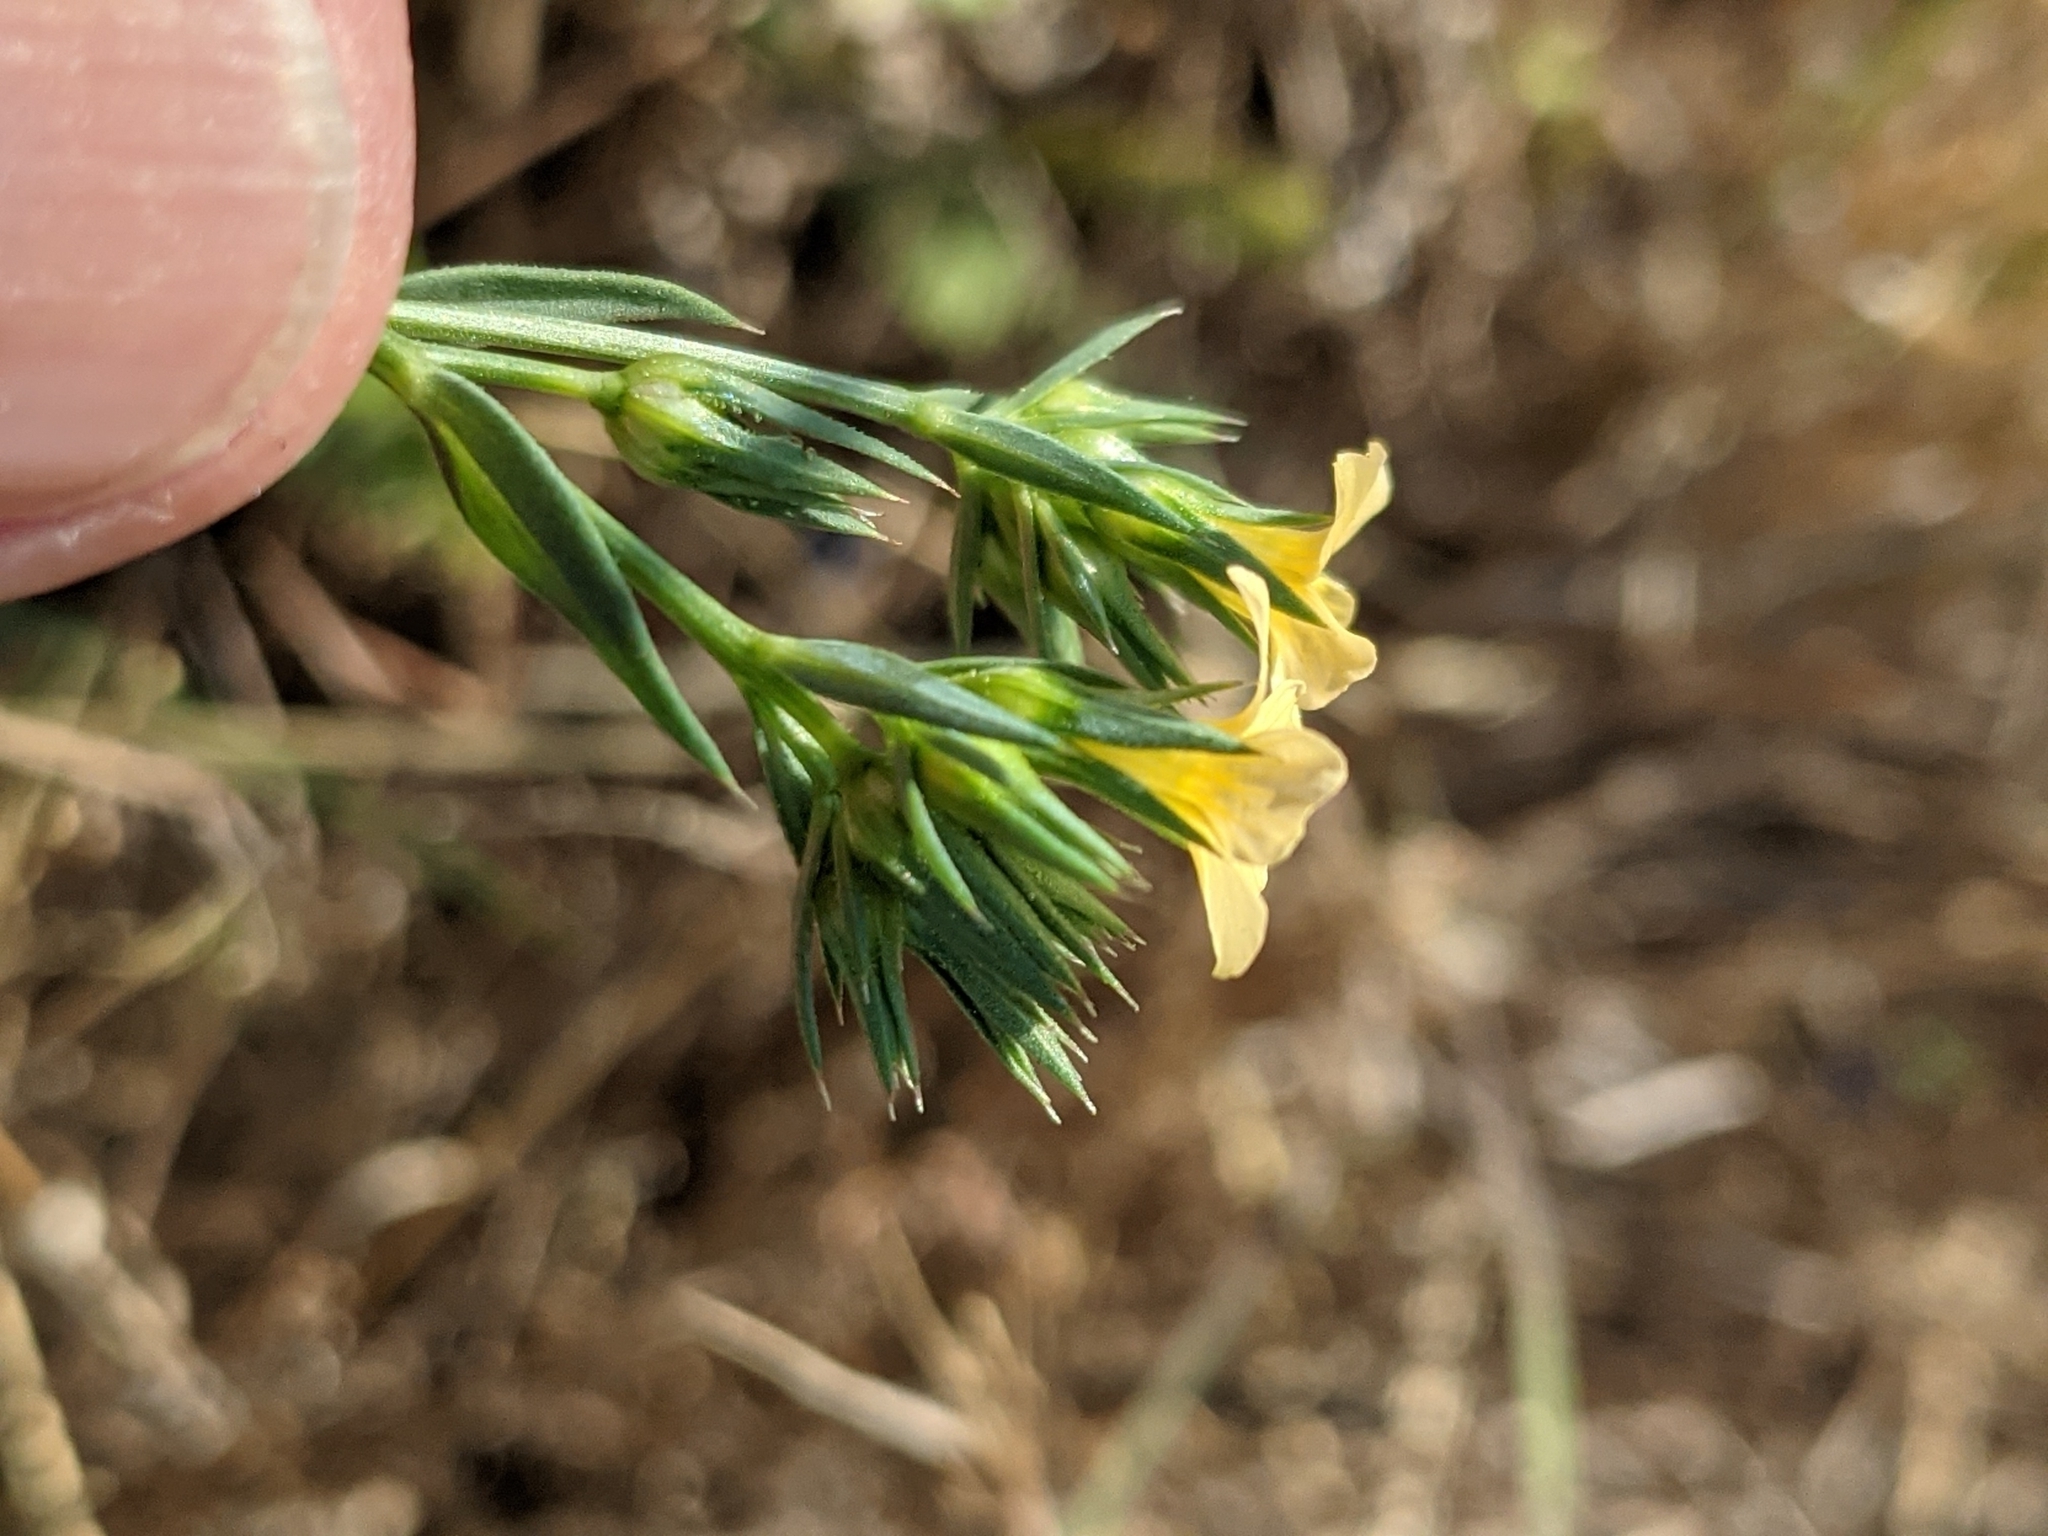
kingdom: Plantae
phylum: Tracheophyta
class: Magnoliopsida
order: Malpighiales
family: Linaceae
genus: Linum
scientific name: Linum strictum
